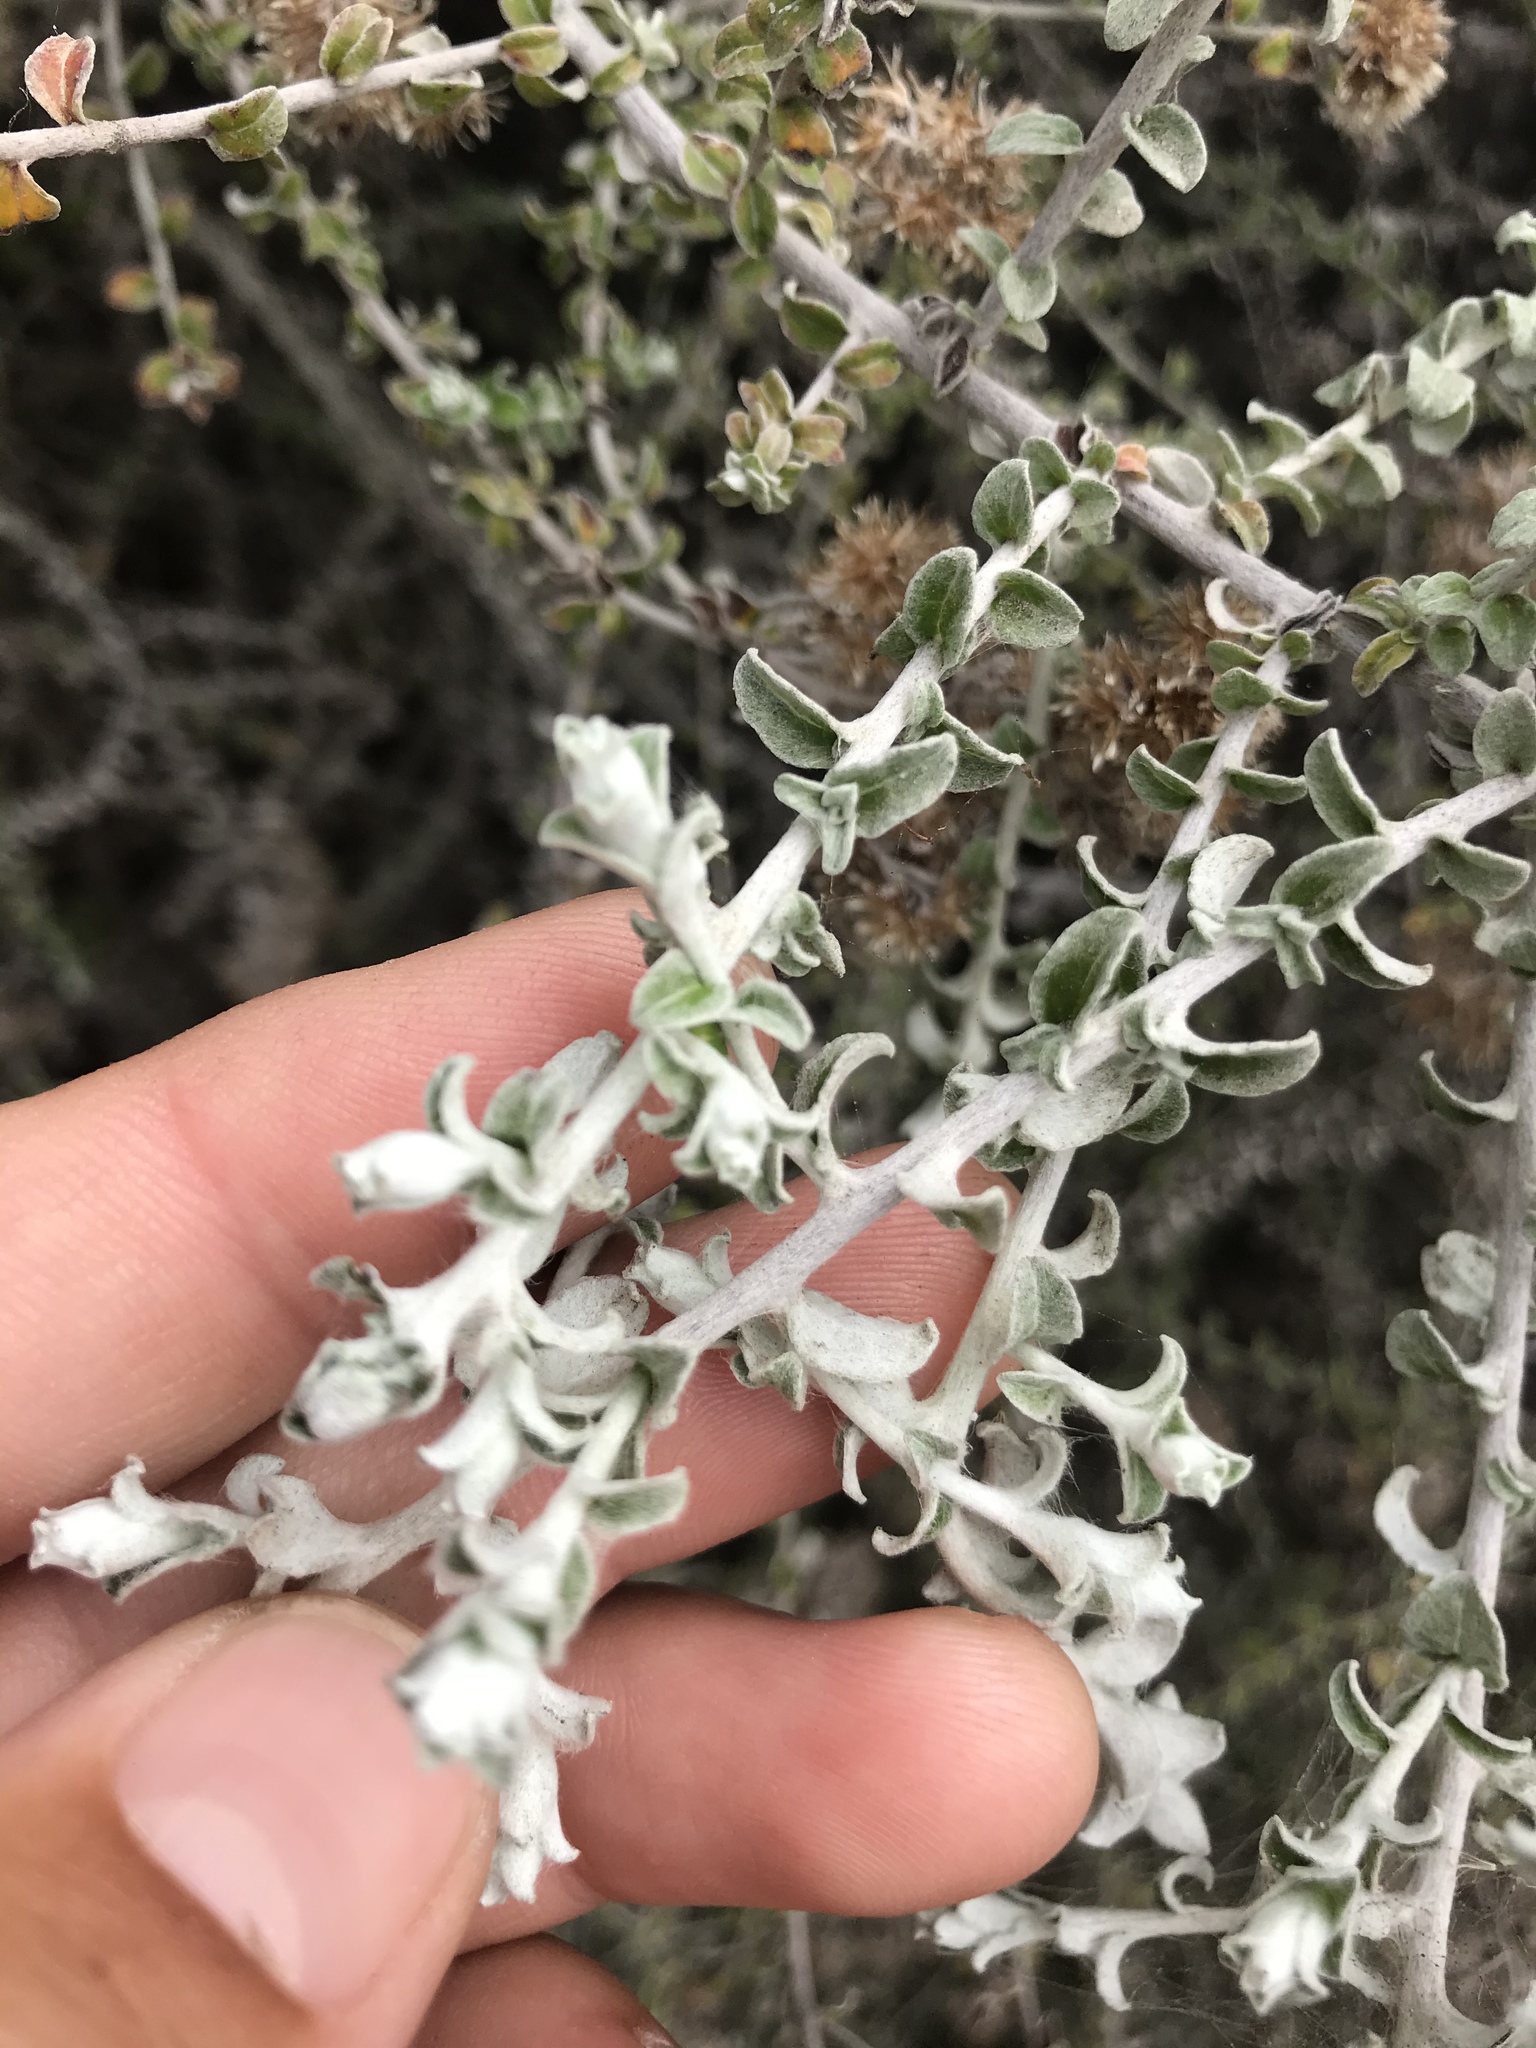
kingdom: Plantae
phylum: Tracheophyta
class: Magnoliopsida
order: Asterales
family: Asteraceae
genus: Plecostachys
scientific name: Plecostachys serpyllifolia
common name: Petite licorice
